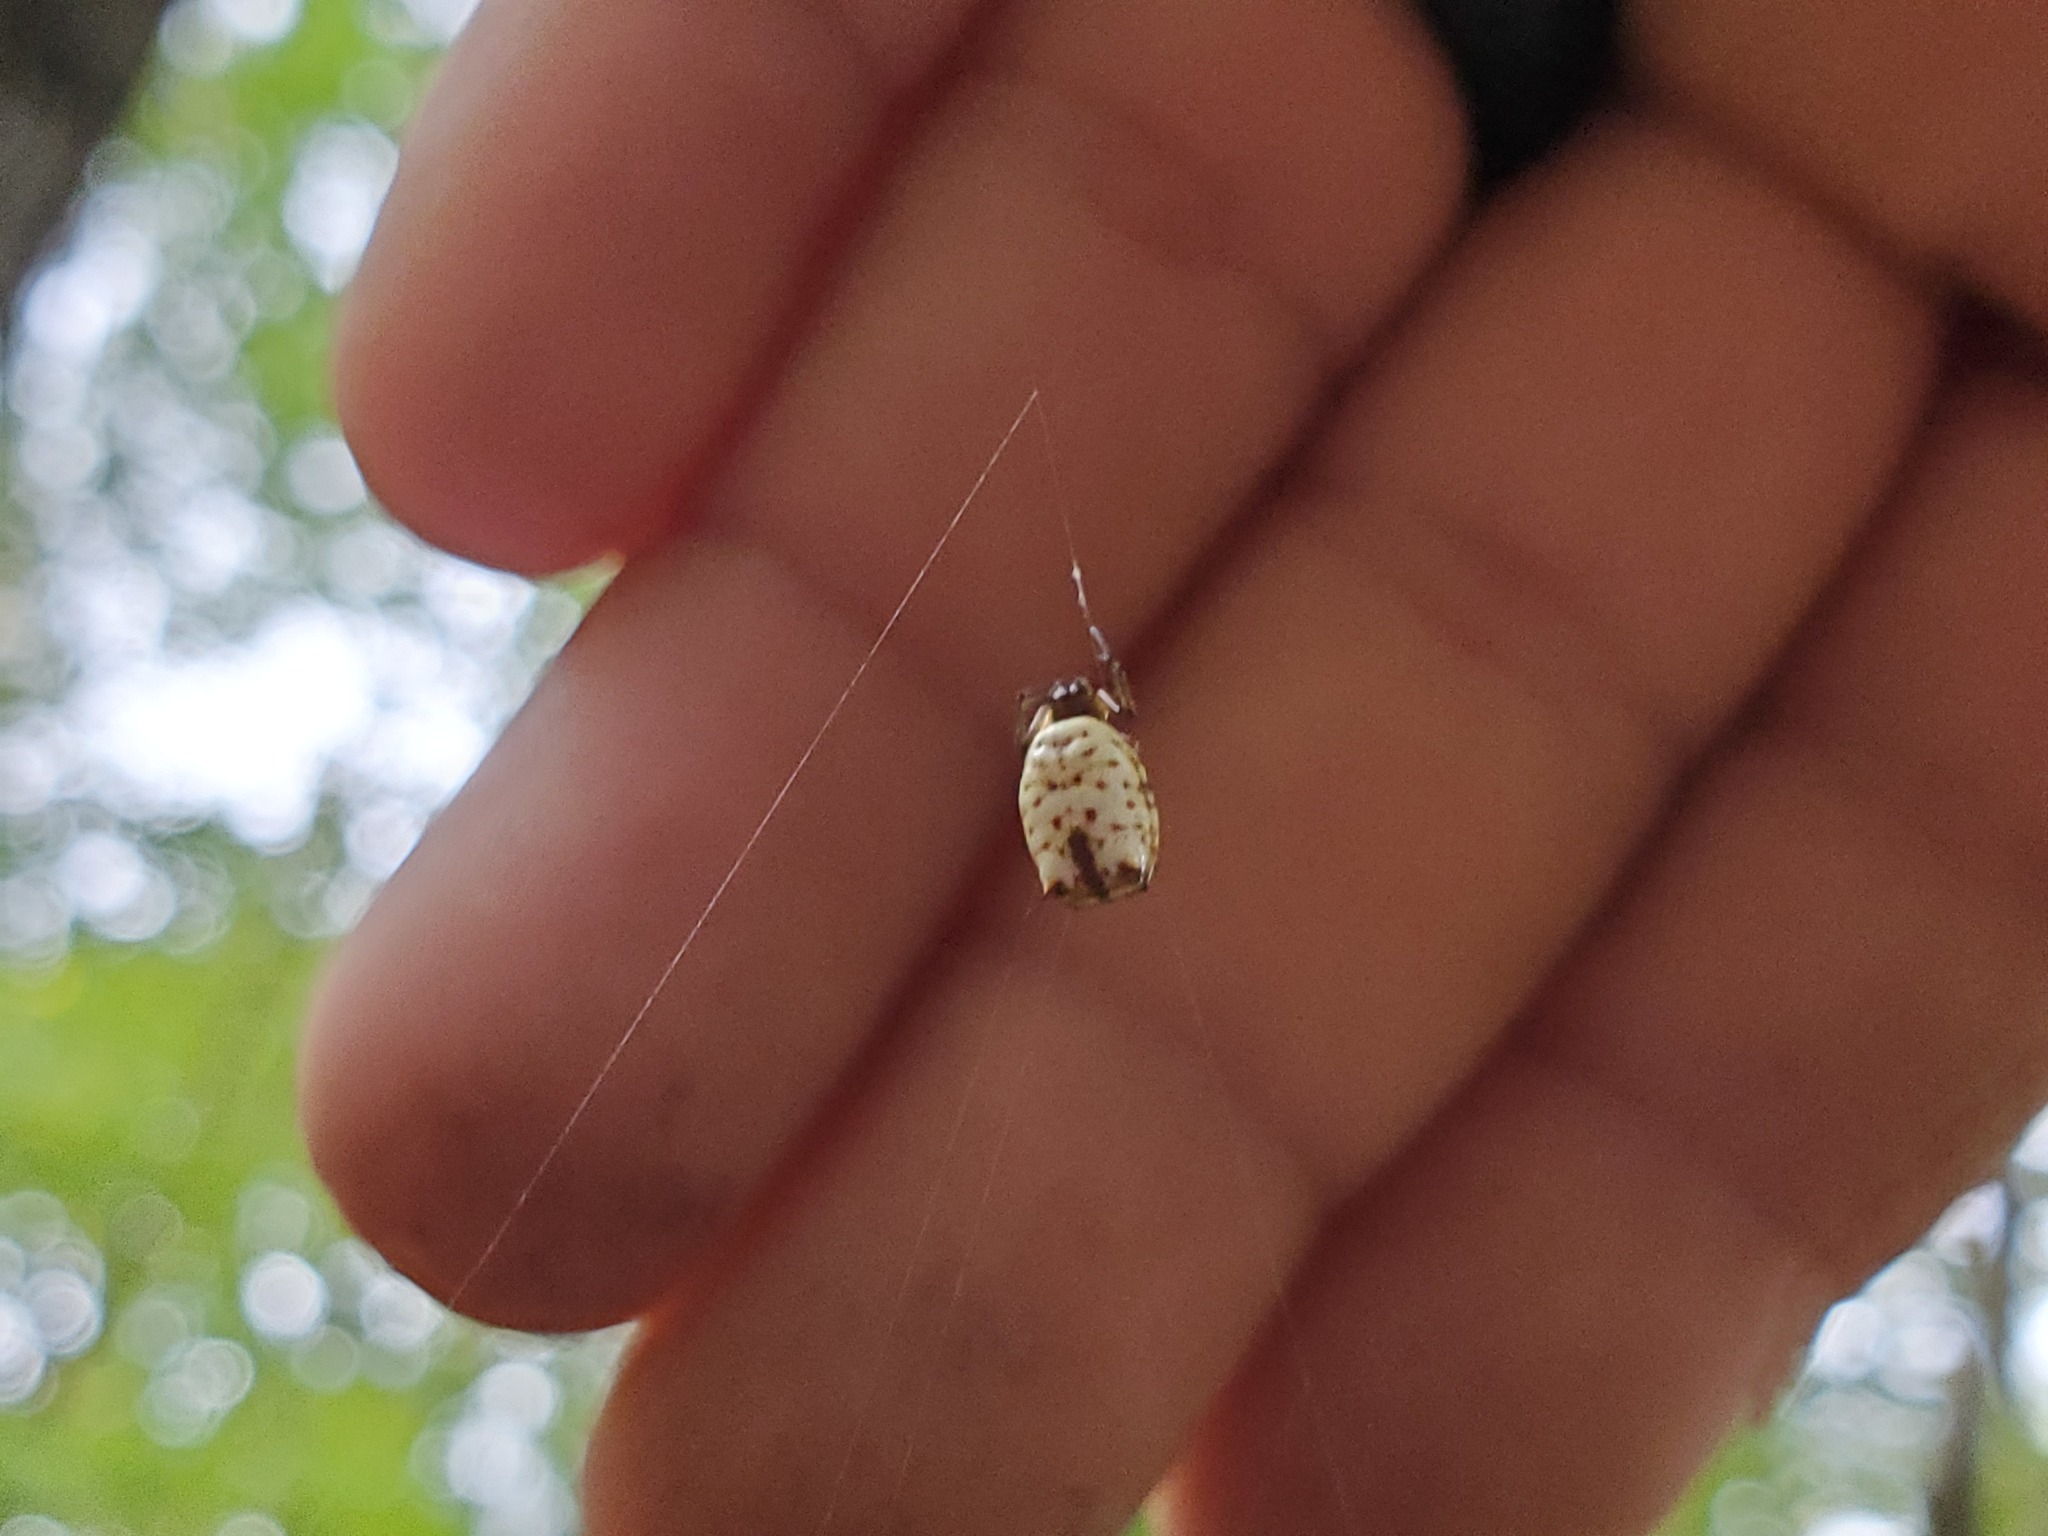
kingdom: Animalia
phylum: Arthropoda
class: Arachnida
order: Araneae
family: Araneidae
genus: Micrathena
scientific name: Micrathena mitrata
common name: Orb weavers
